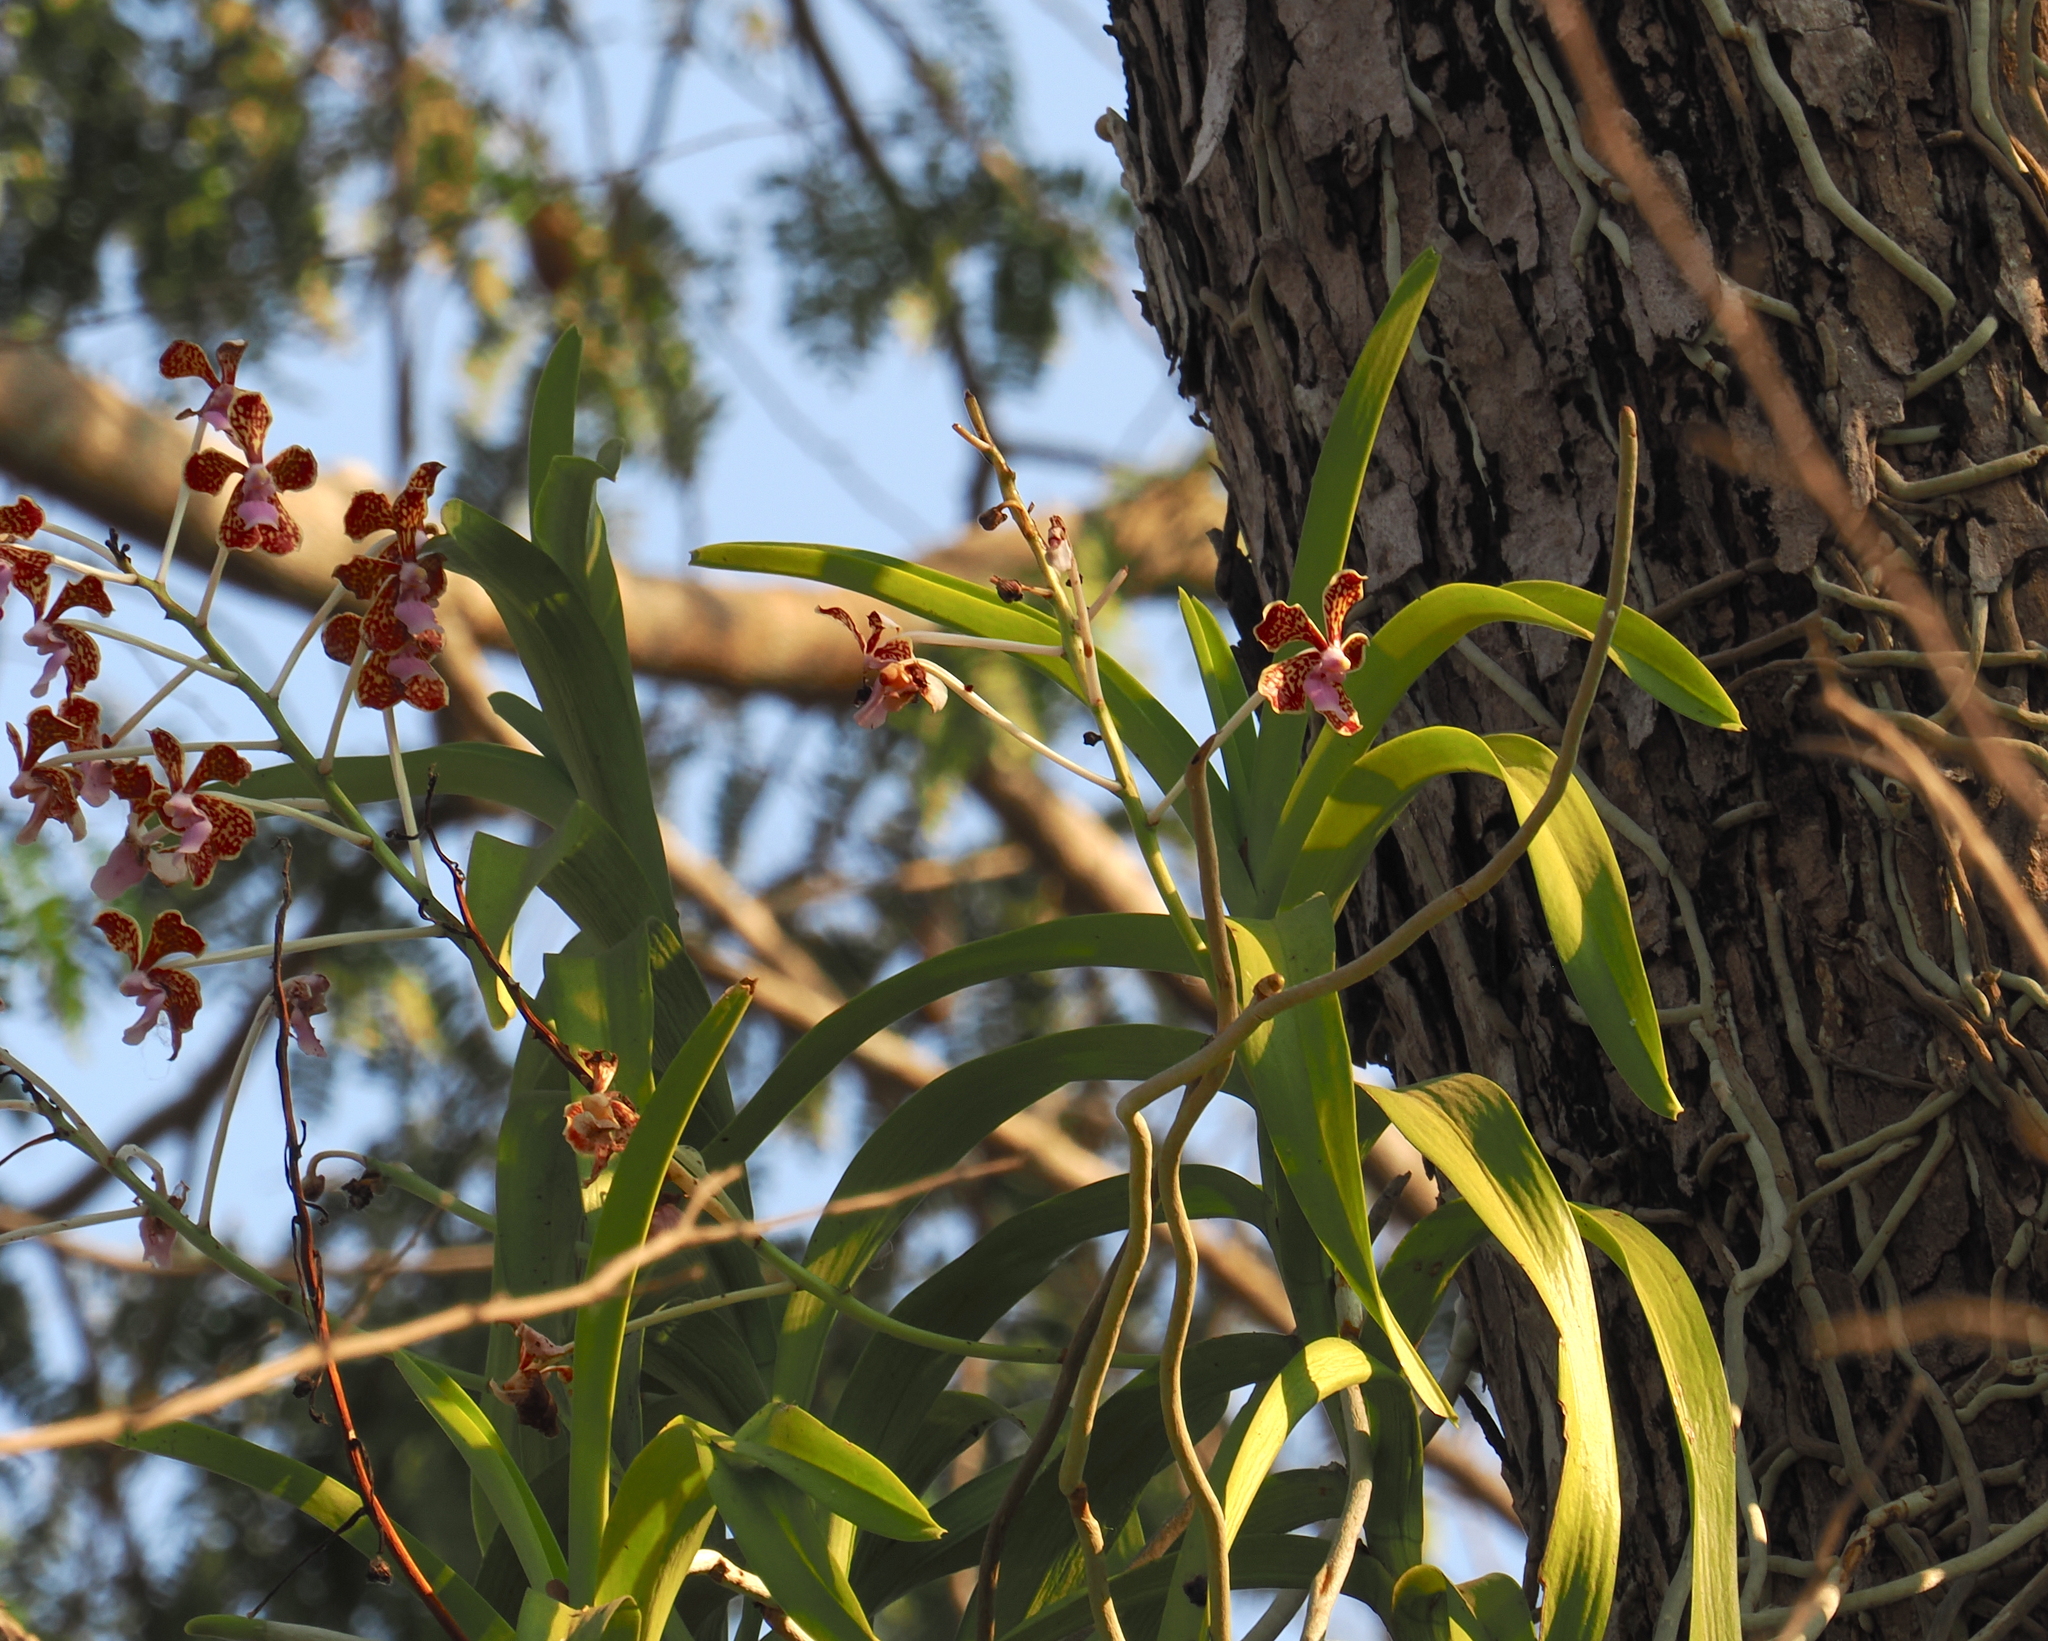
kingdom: Plantae
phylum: Tracheophyta
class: Liliopsida
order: Asparagales
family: Orchidaceae
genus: Vanda
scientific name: Vanda perplexa
